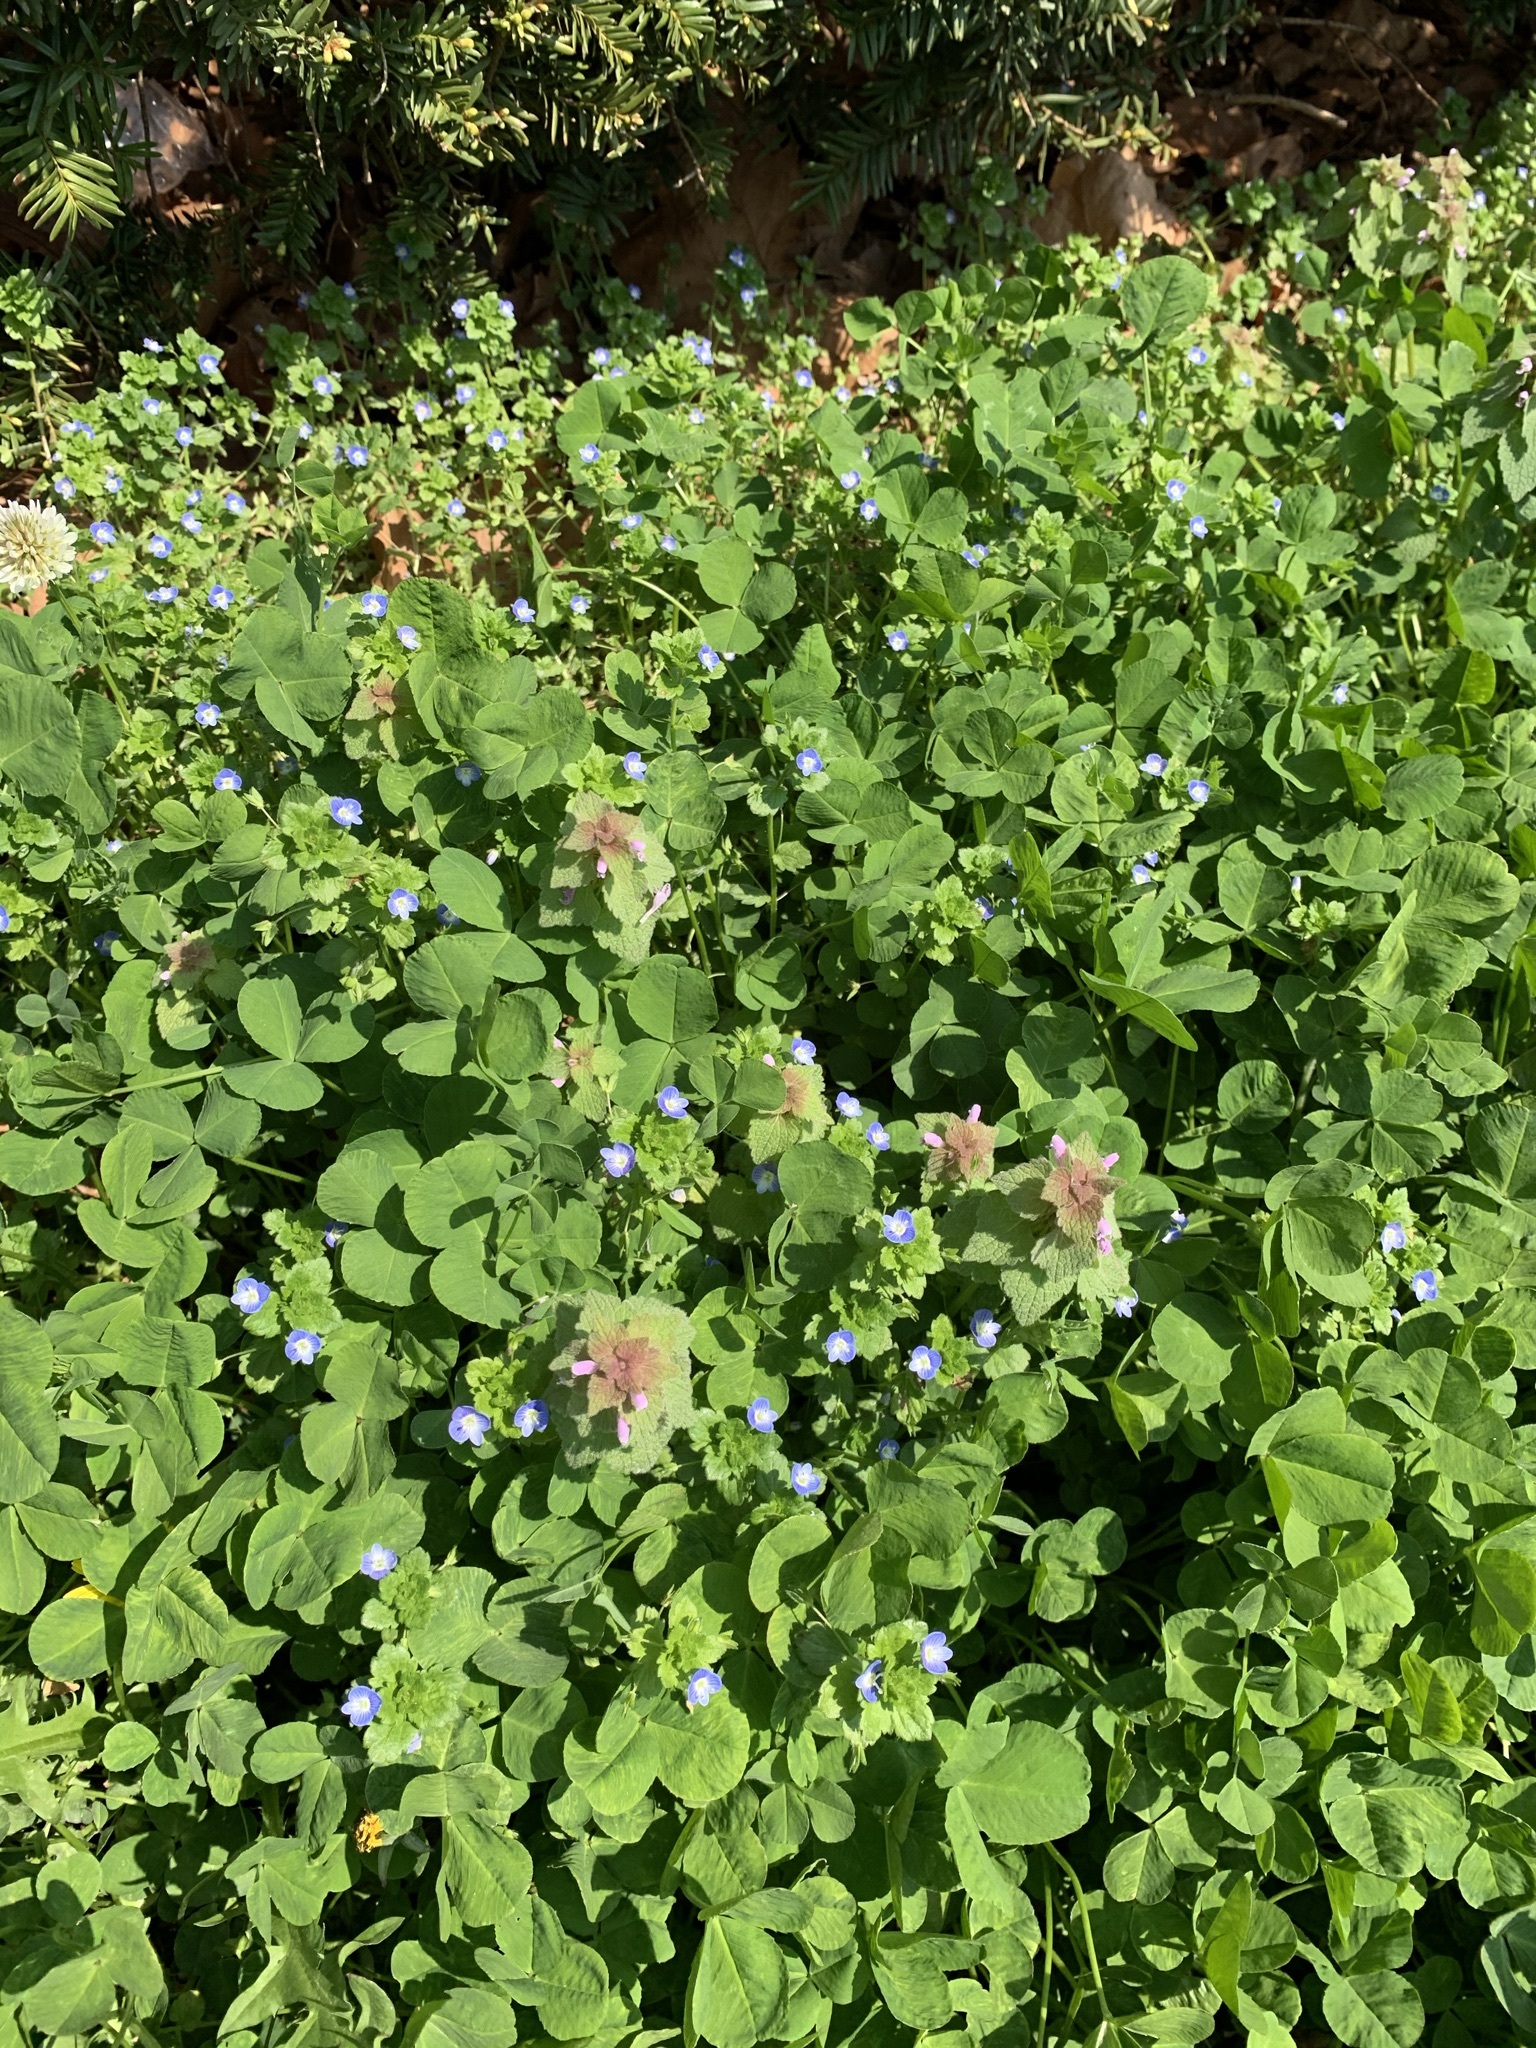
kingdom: Plantae
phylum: Tracheophyta
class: Magnoliopsida
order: Lamiales
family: Lamiaceae
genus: Lamium
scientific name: Lamium purpureum
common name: Red dead-nettle
